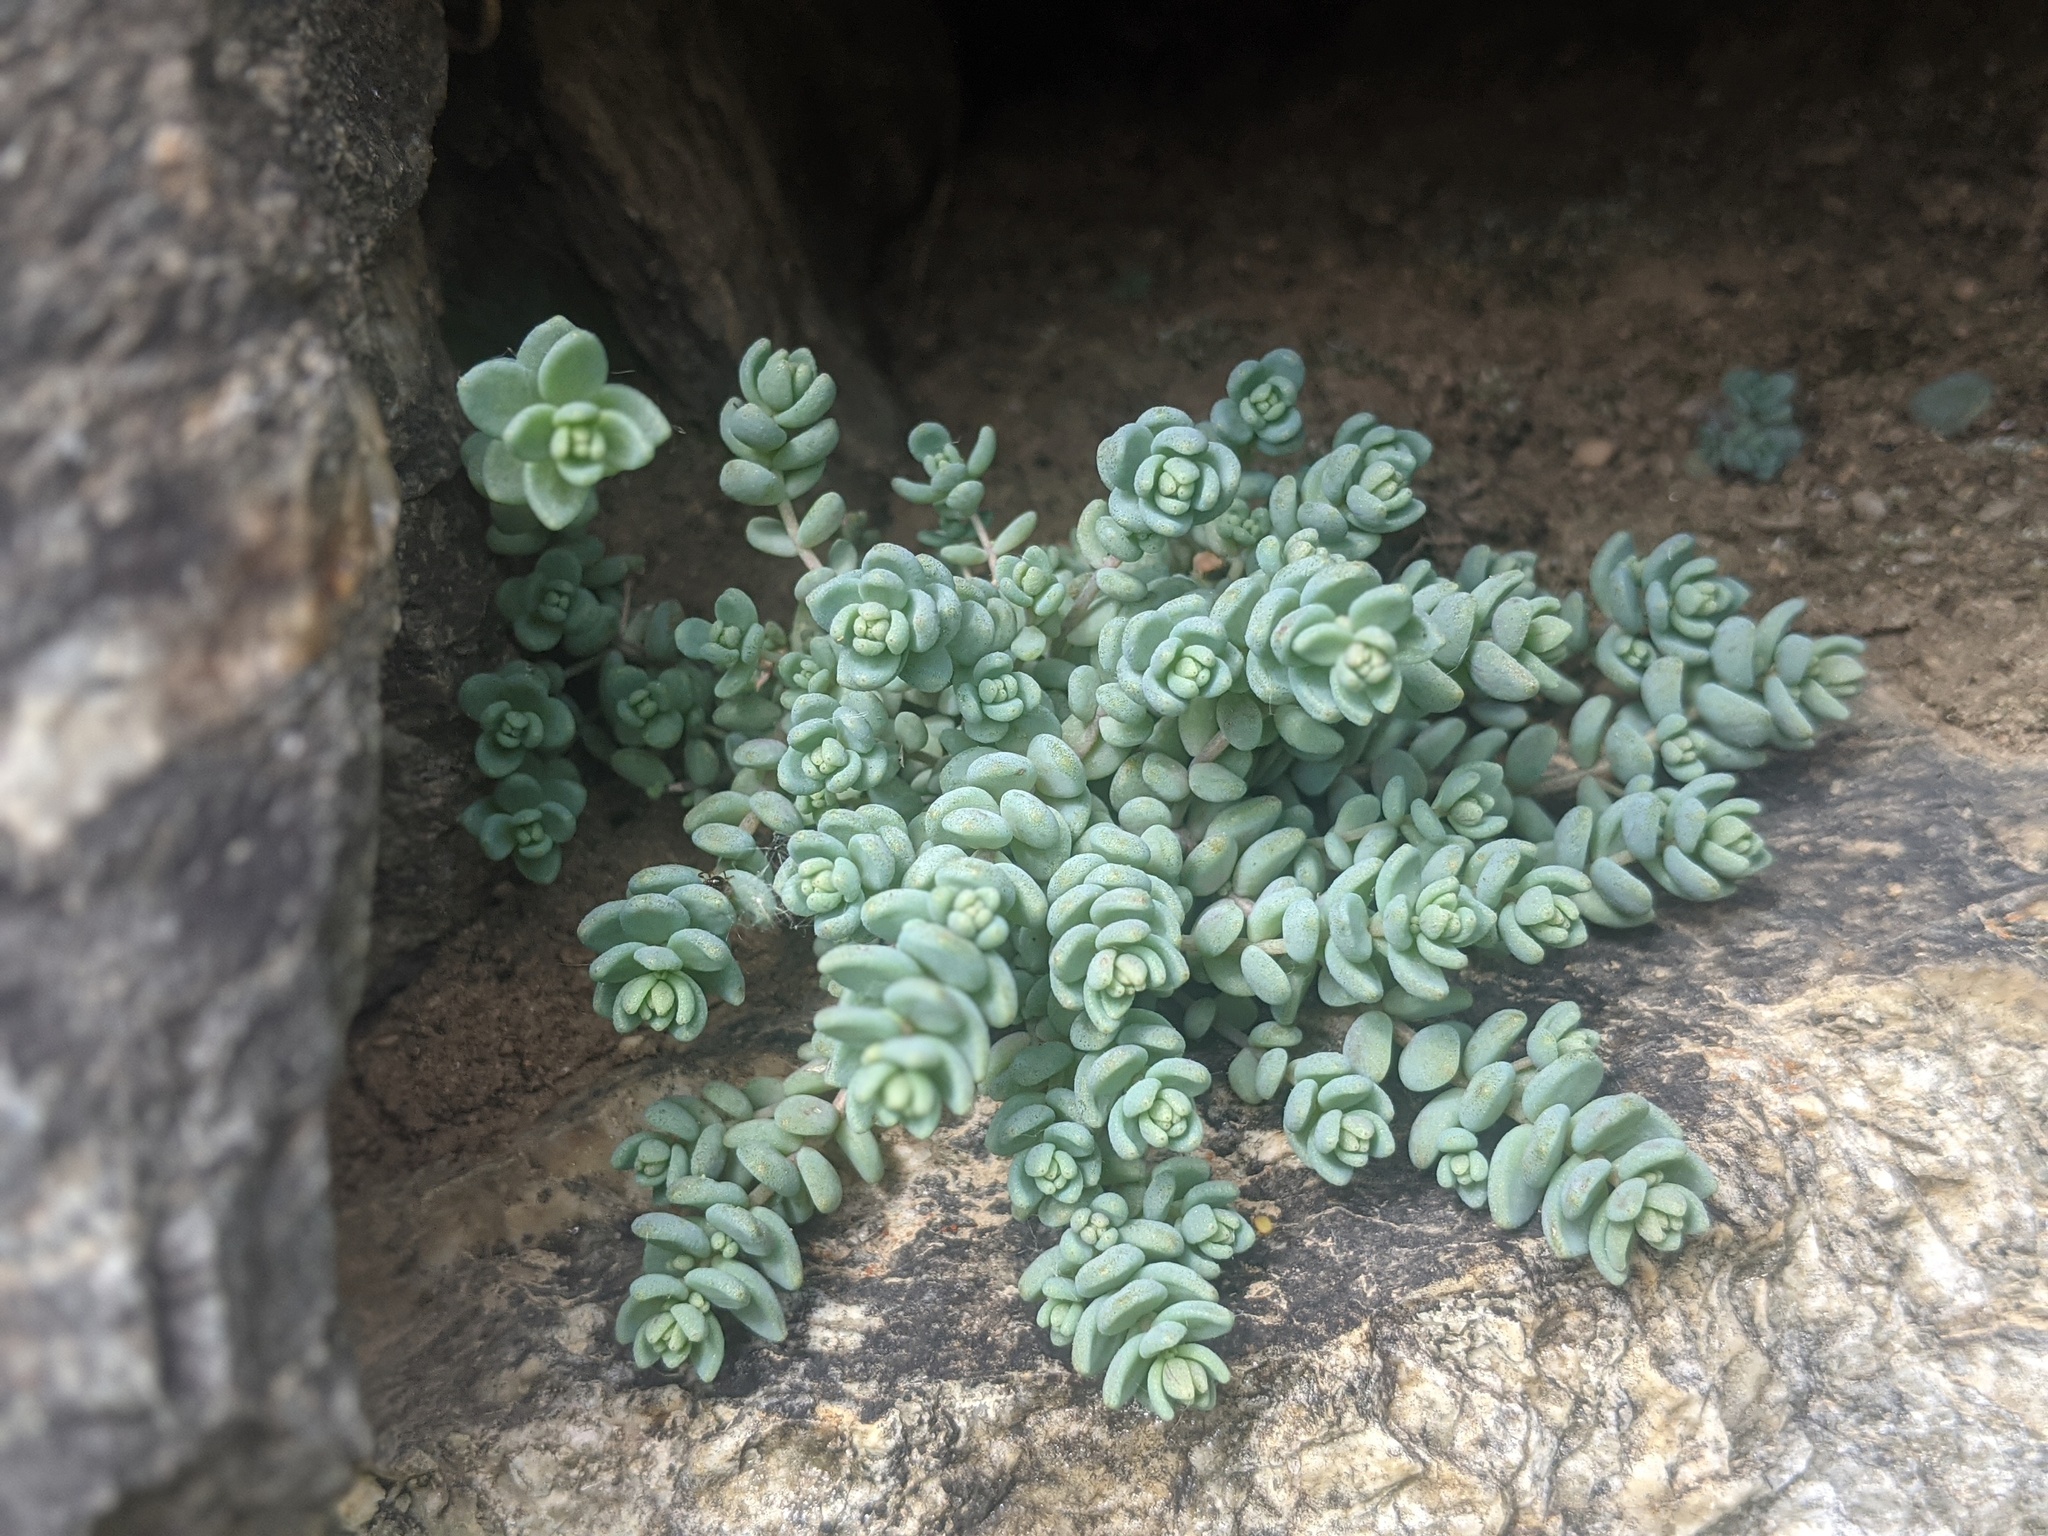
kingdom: Plantae
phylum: Tracheophyta
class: Magnoliopsida
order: Saxifragales
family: Crassulaceae
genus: Sedum
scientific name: Sedum dasyphyllum
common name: Thick-leaf stonecrop
